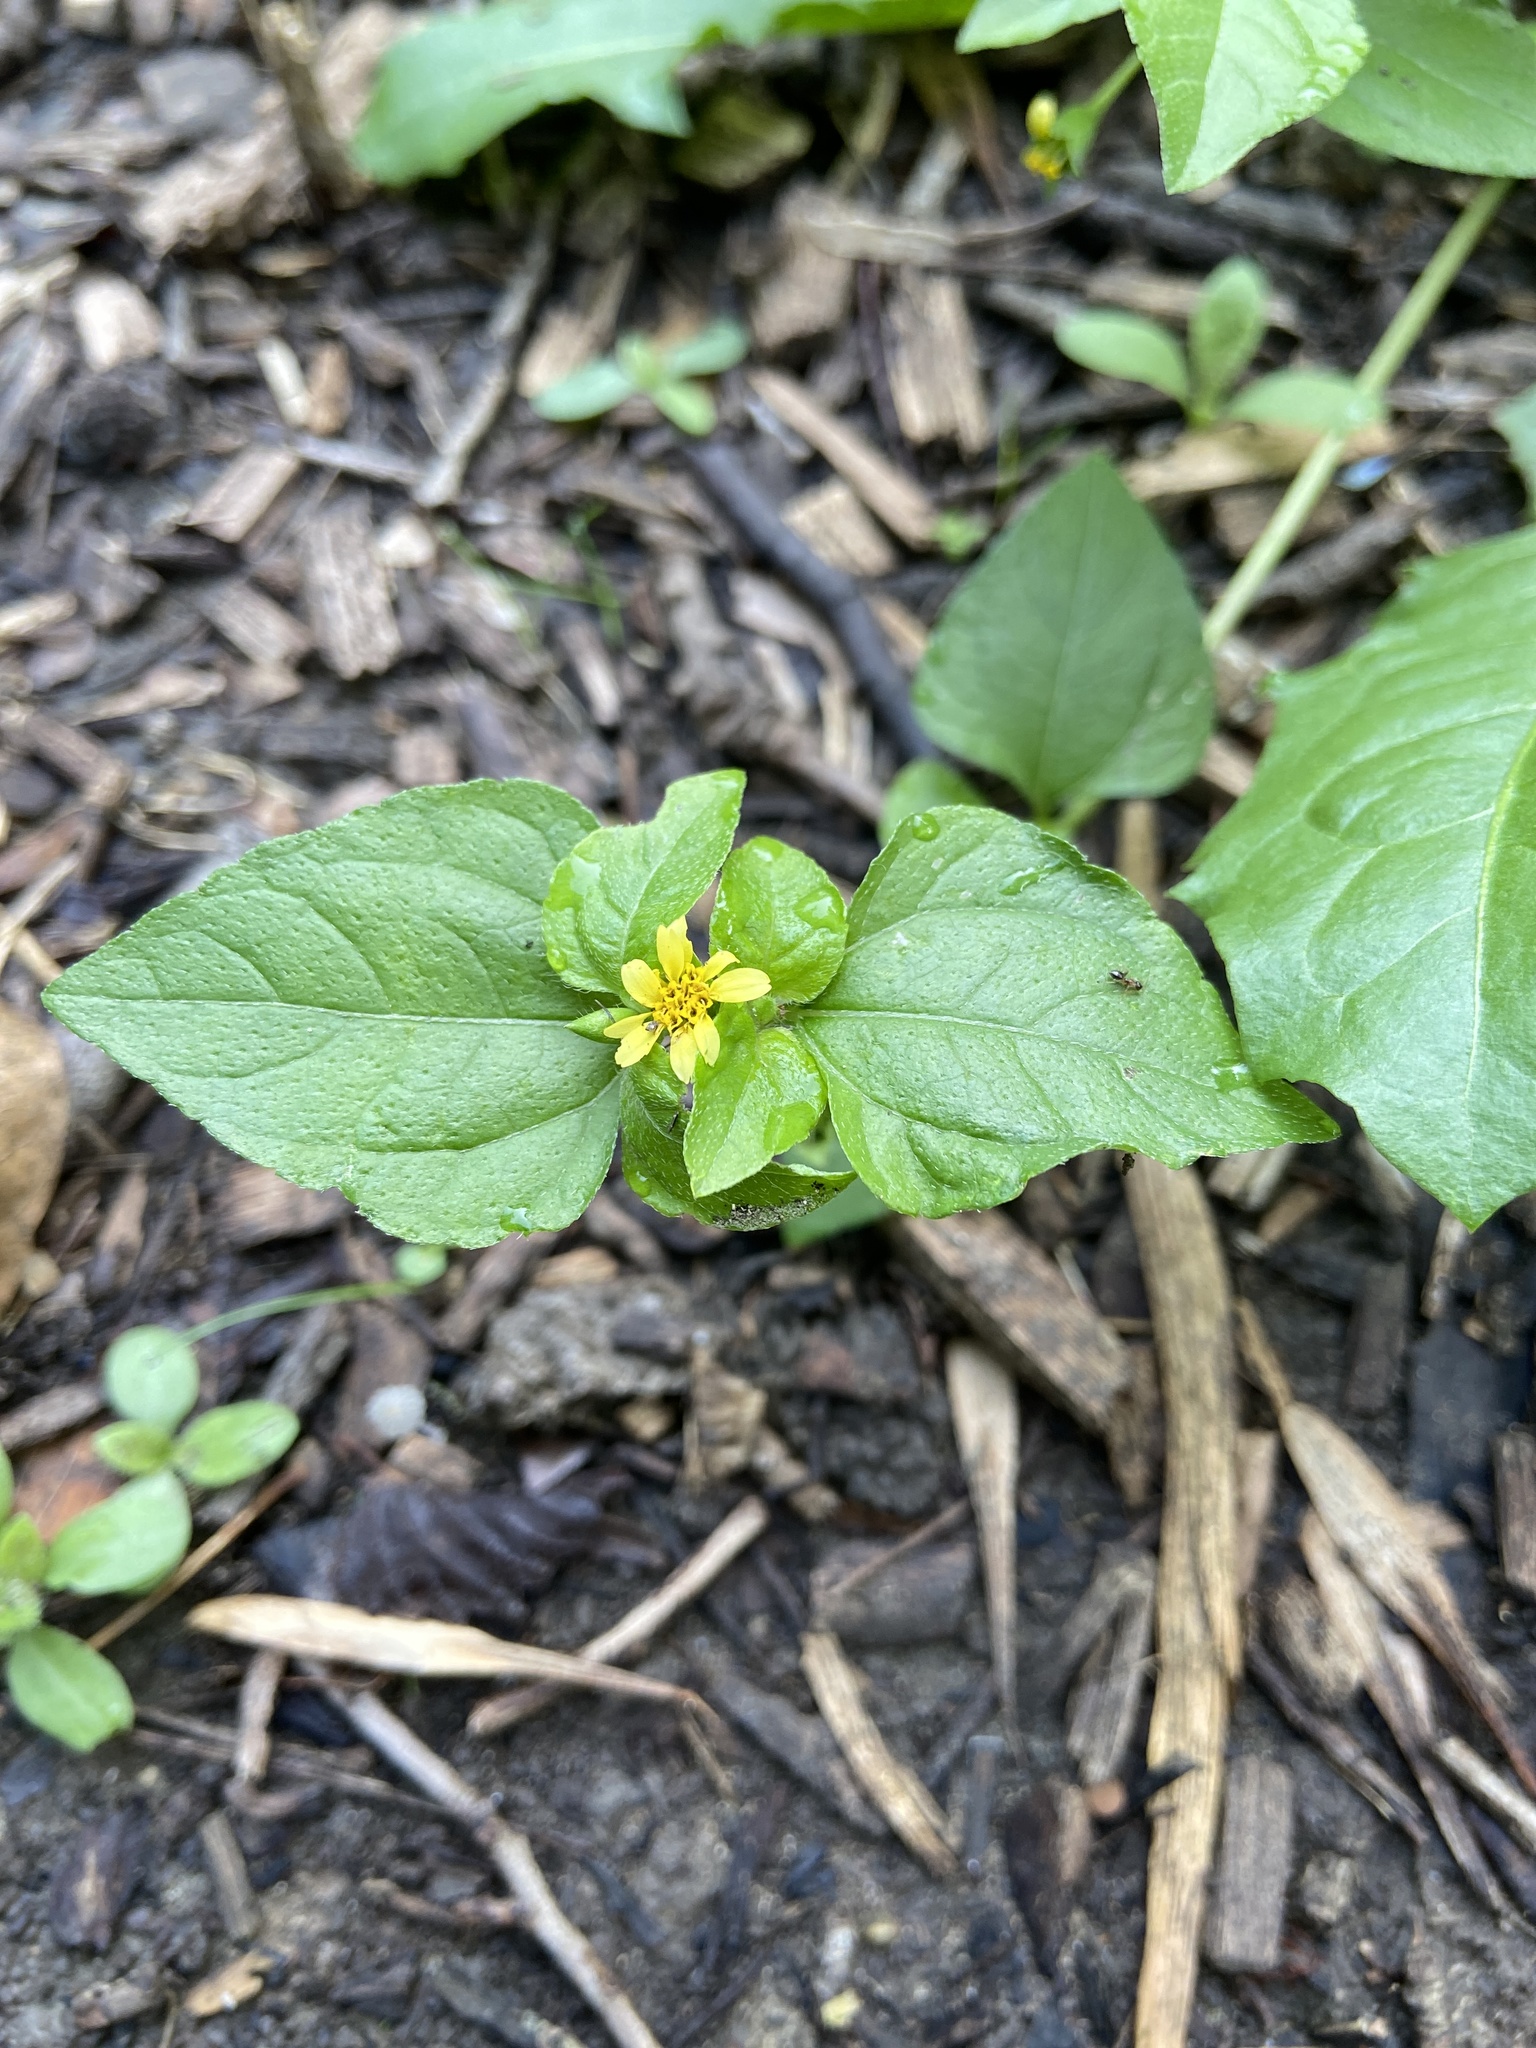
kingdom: Plantae
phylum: Tracheophyta
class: Magnoliopsida
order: Asterales
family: Asteraceae
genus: Calyptocarpus
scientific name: Calyptocarpus vialis
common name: Straggler daisy
